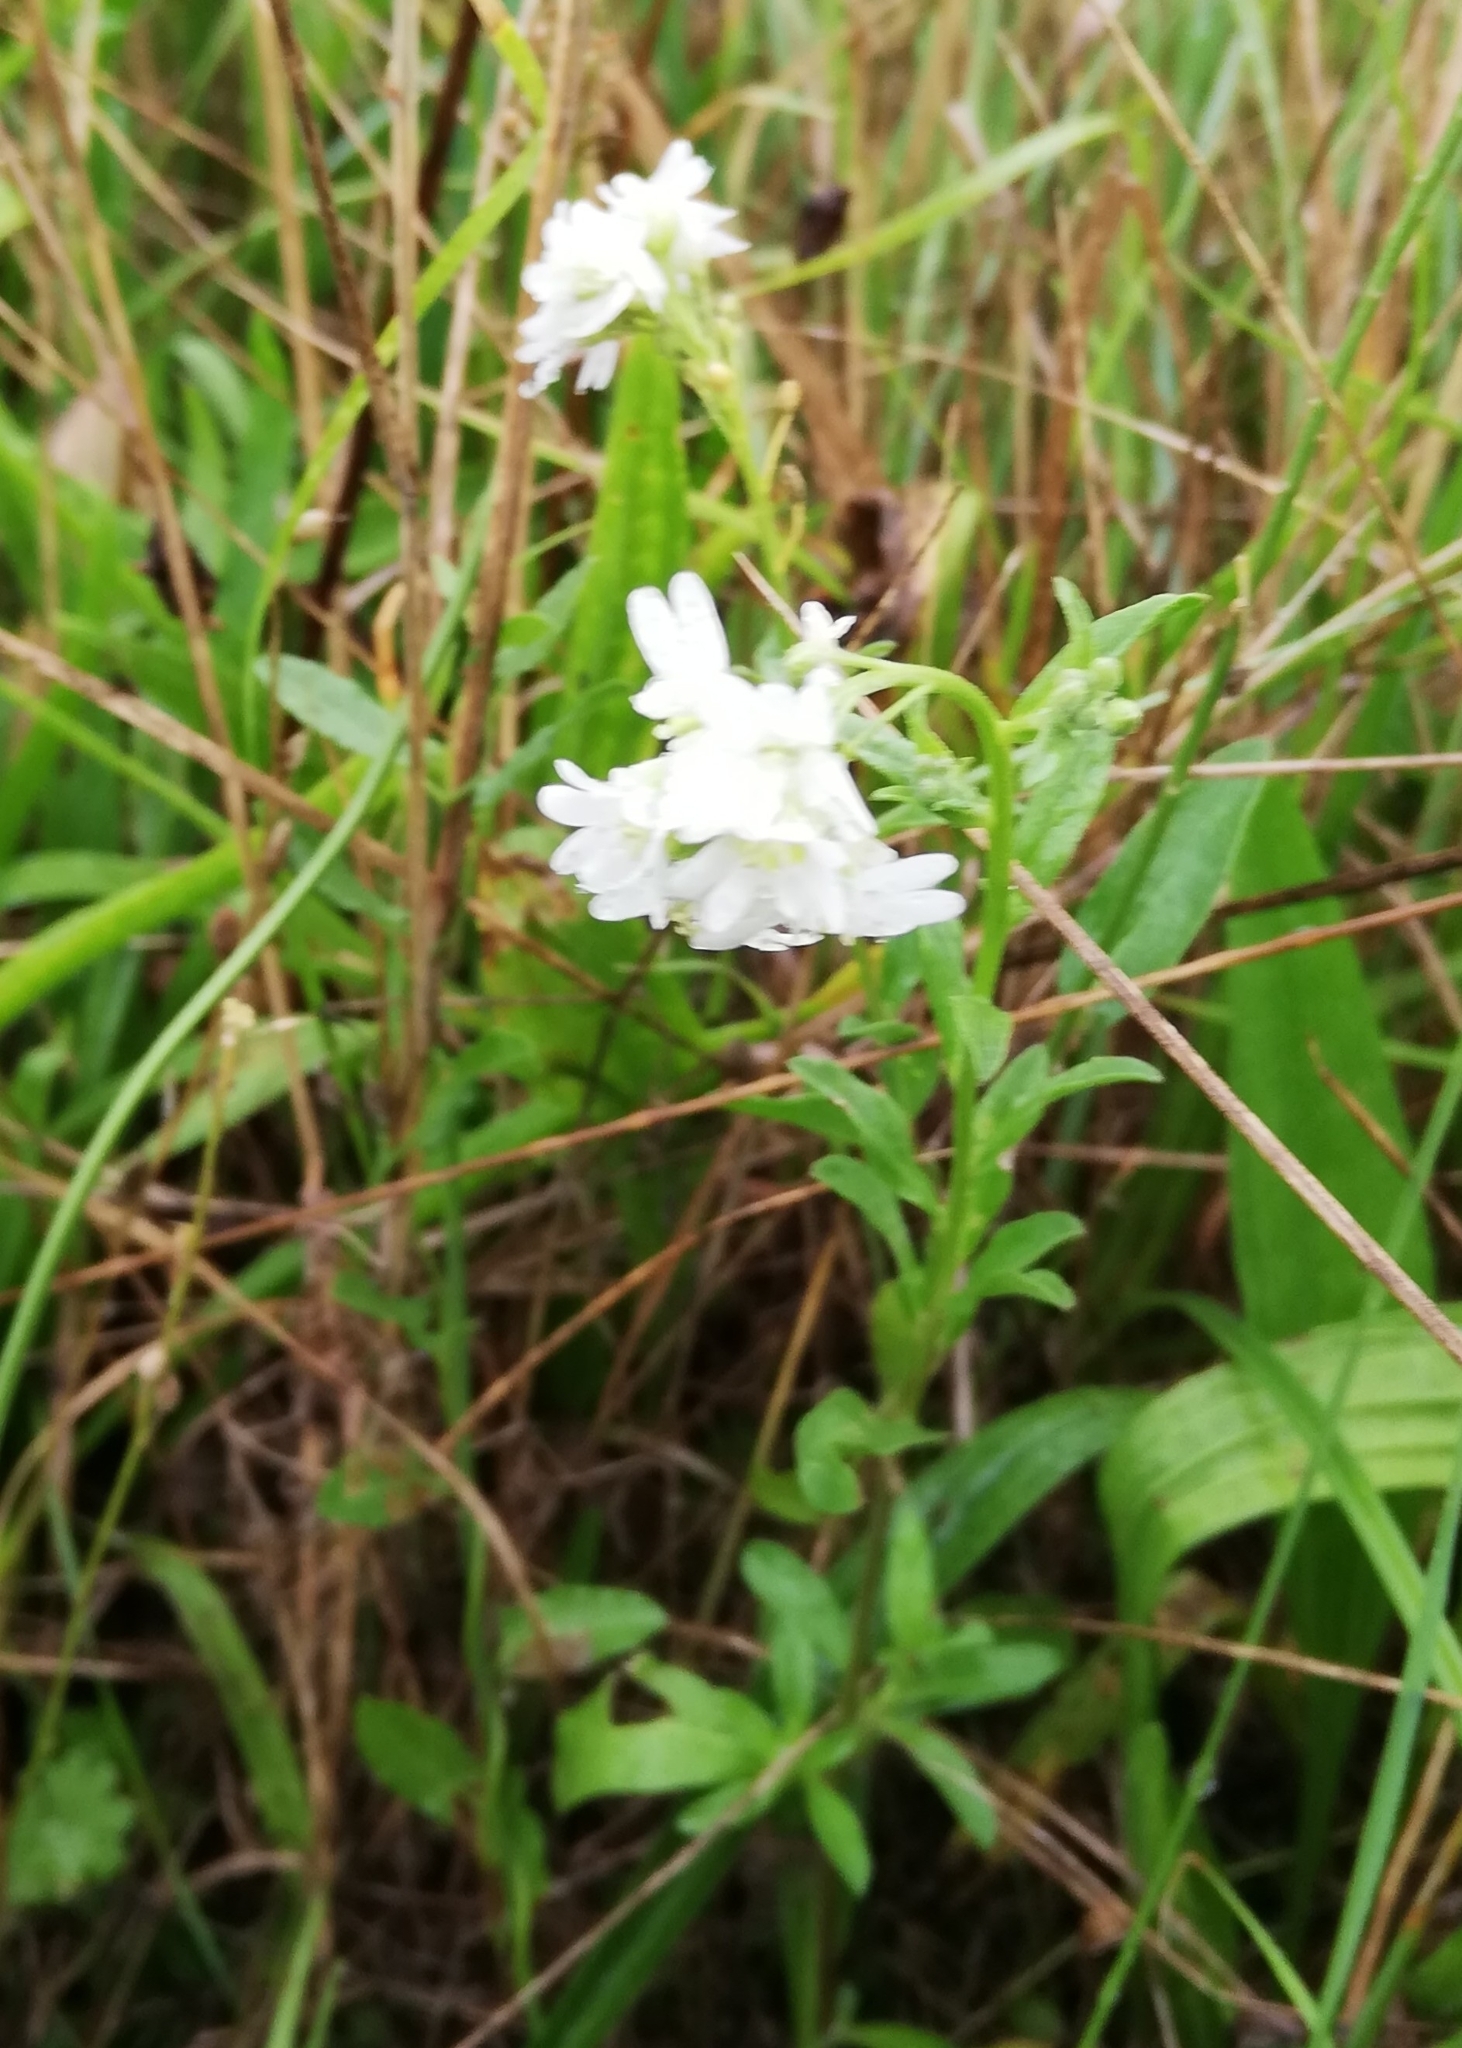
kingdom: Plantae
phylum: Tracheophyta
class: Magnoliopsida
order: Brassicales
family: Brassicaceae
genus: Berteroa
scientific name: Berteroa incana
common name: Hoary alison
